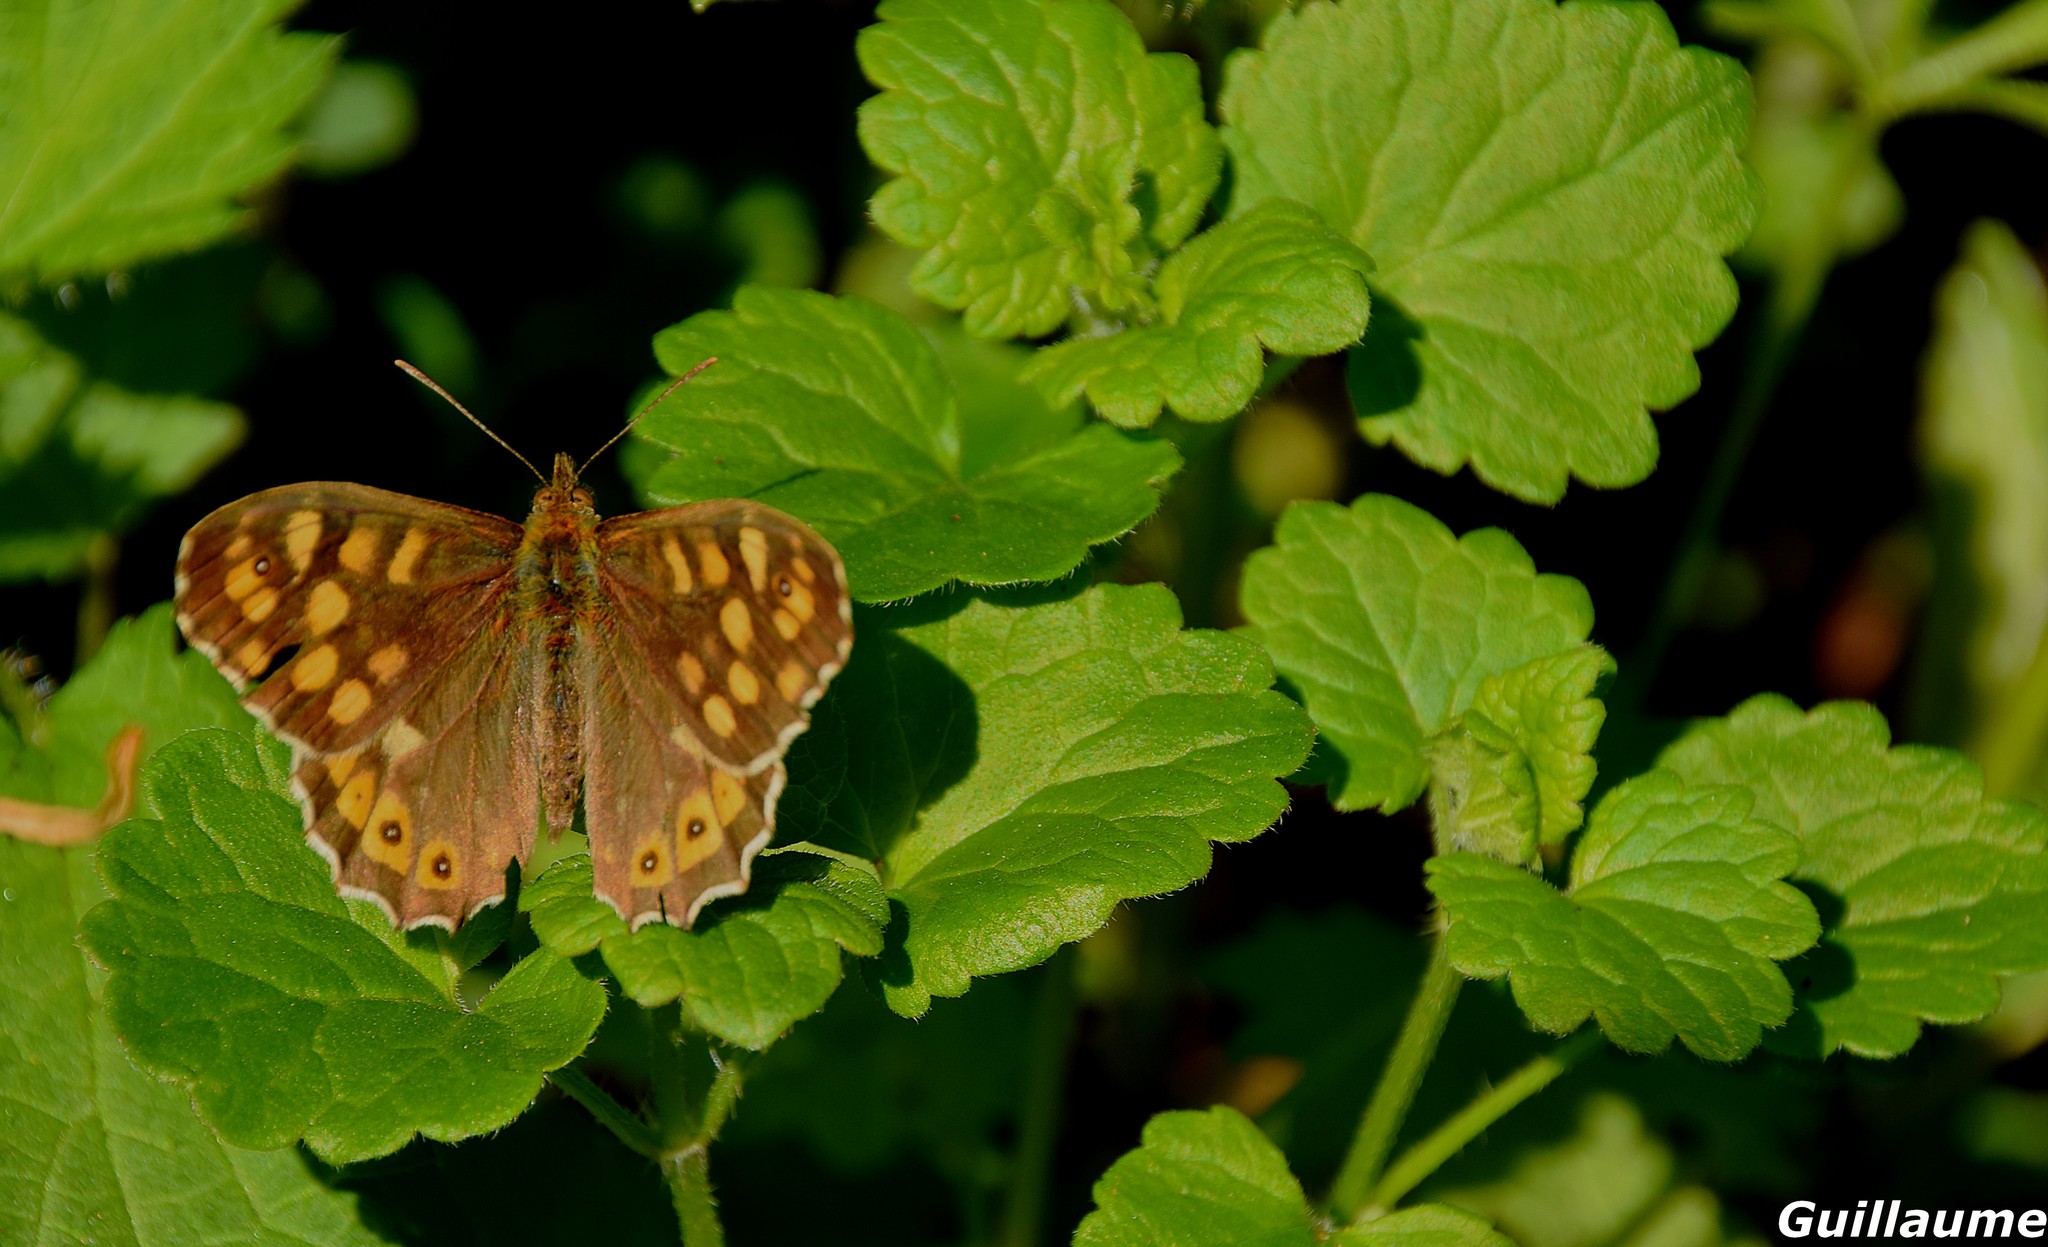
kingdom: Animalia
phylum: Arthropoda
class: Insecta
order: Lepidoptera
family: Nymphalidae
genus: Pararge
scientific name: Pararge aegeria
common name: Speckled wood
